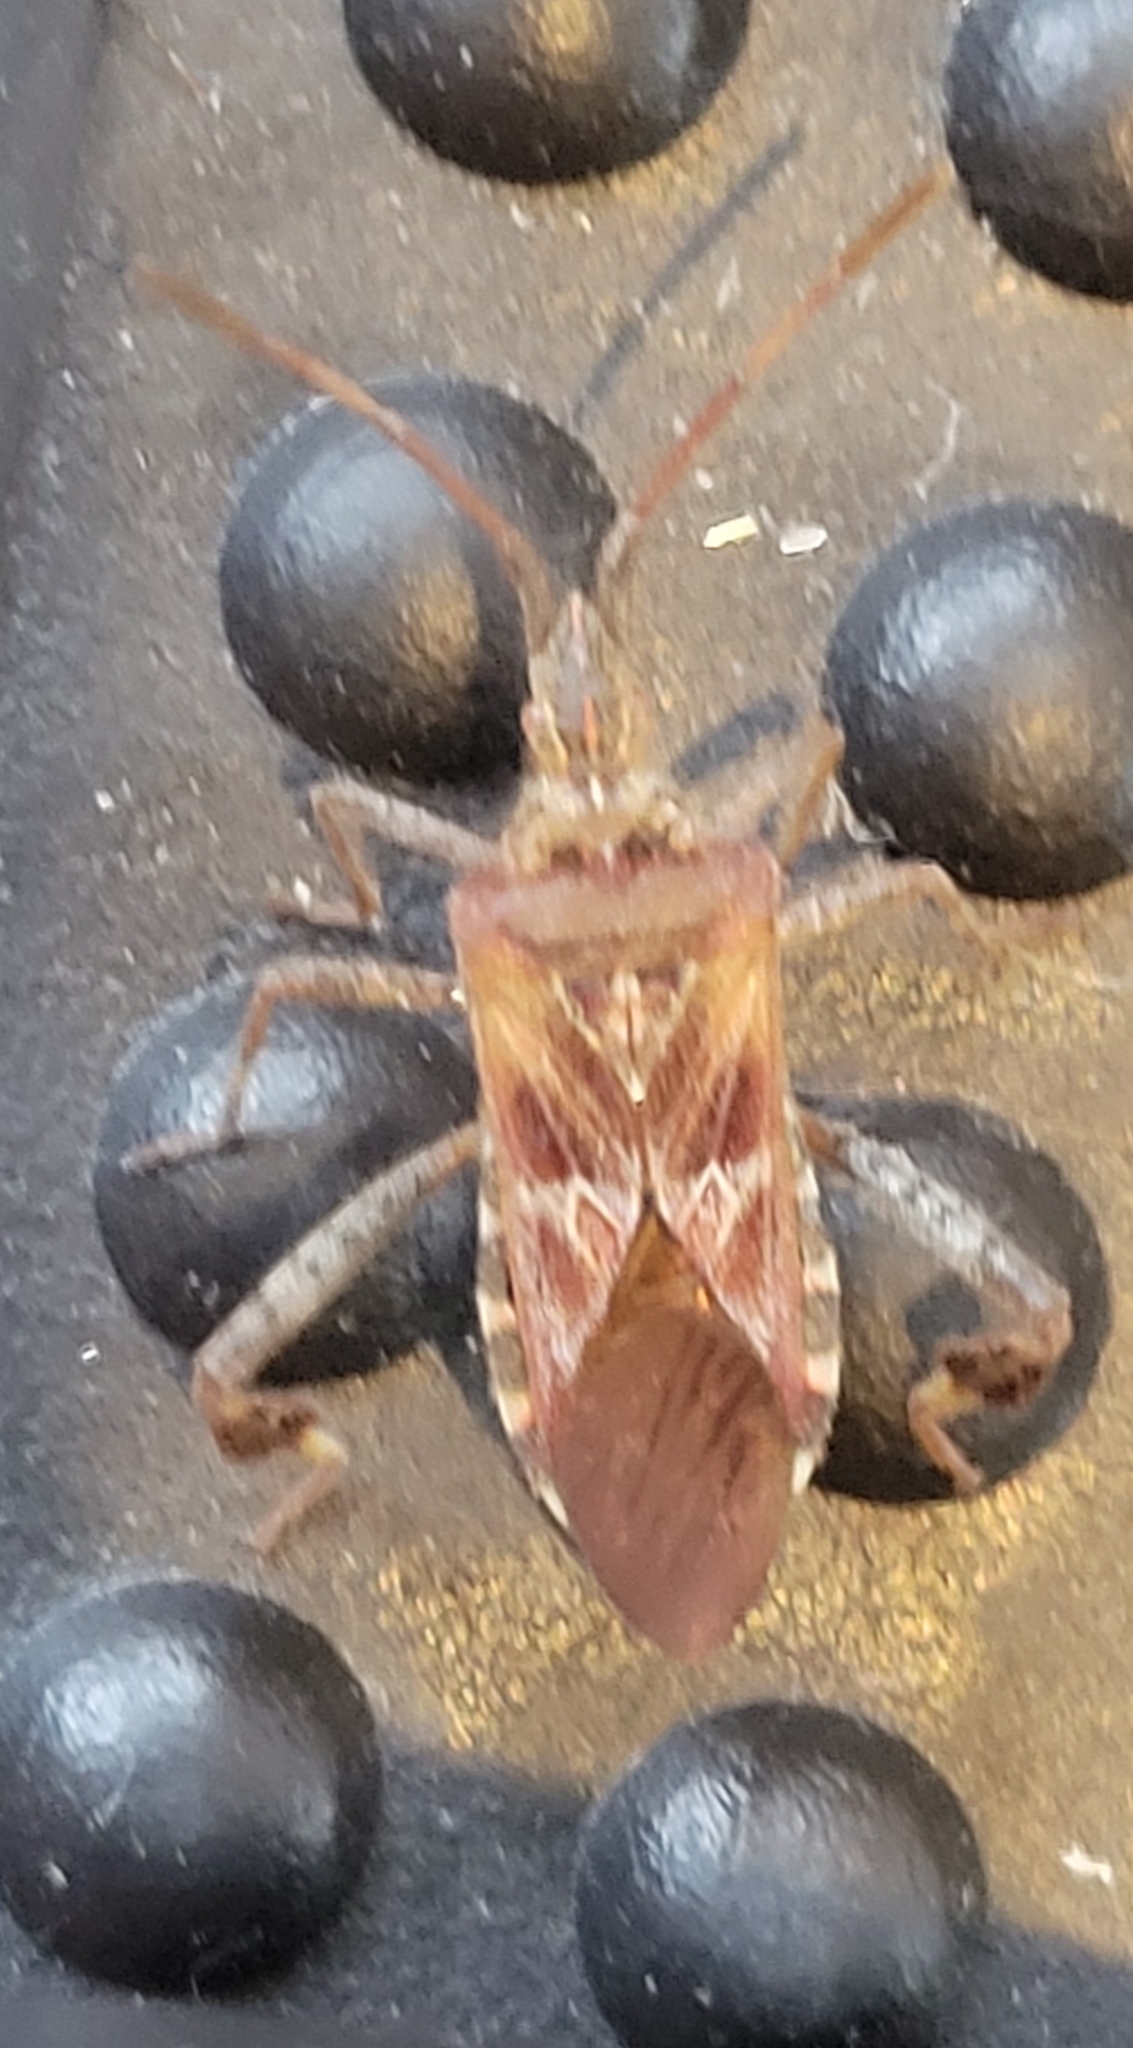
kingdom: Animalia
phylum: Arthropoda
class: Insecta
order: Hemiptera
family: Coreidae
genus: Leptoglossus
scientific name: Leptoglossus occidentalis
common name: Western conifer-seed bug
